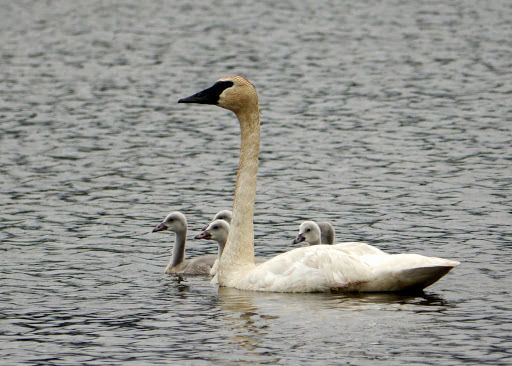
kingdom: Animalia
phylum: Chordata
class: Aves
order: Anseriformes
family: Anatidae
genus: Cygnus
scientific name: Cygnus buccinator
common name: Trumpeter swan
